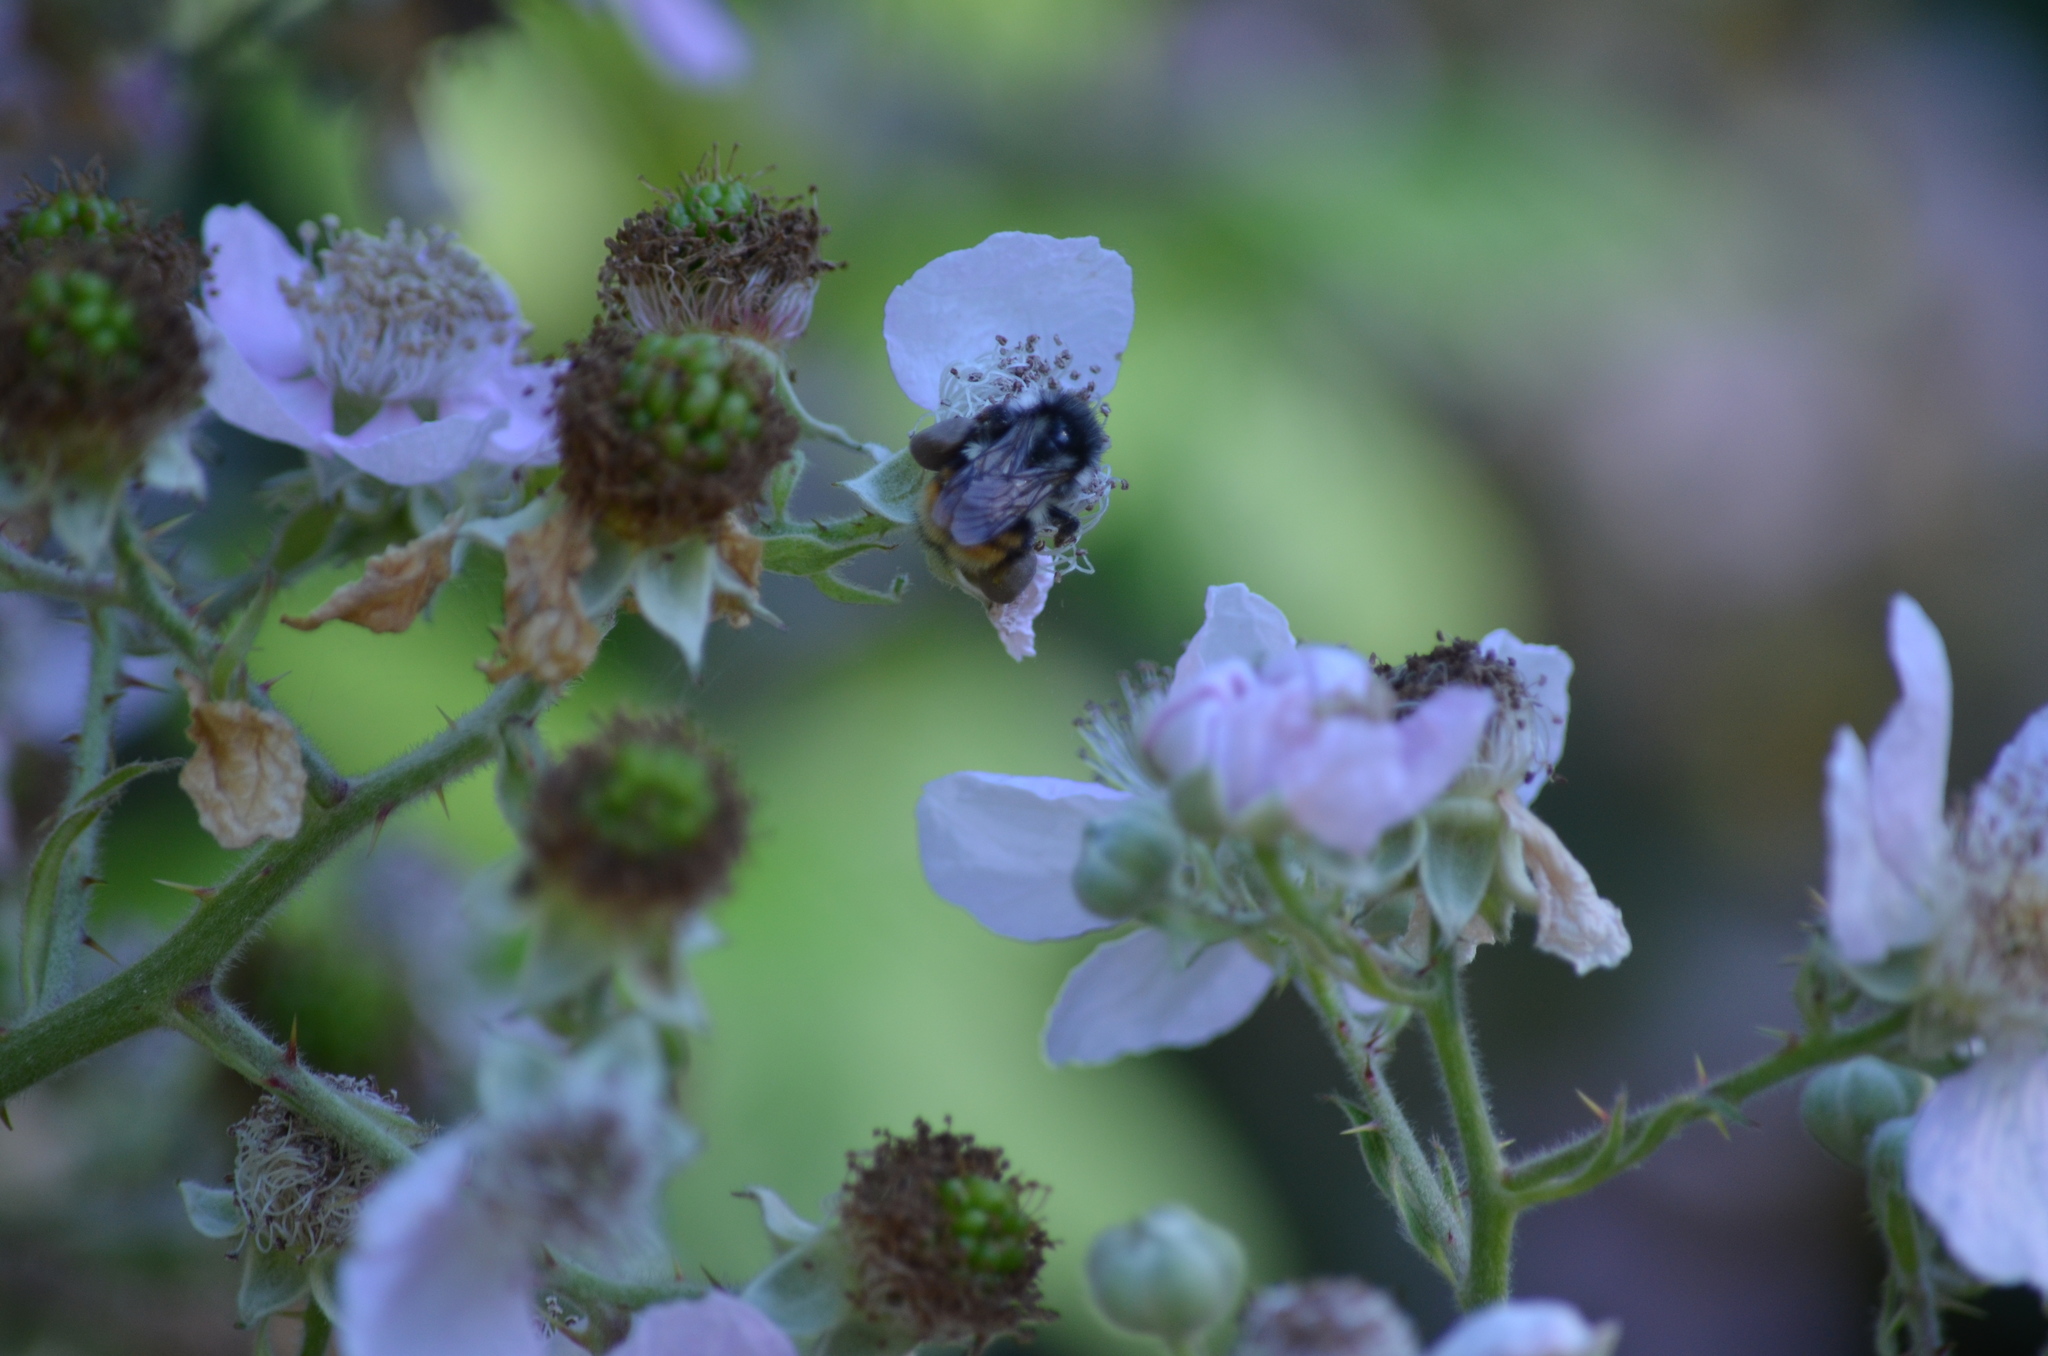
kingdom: Animalia
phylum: Arthropoda
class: Insecta
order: Hymenoptera
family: Apidae
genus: Bombus
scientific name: Bombus vancouverensis
